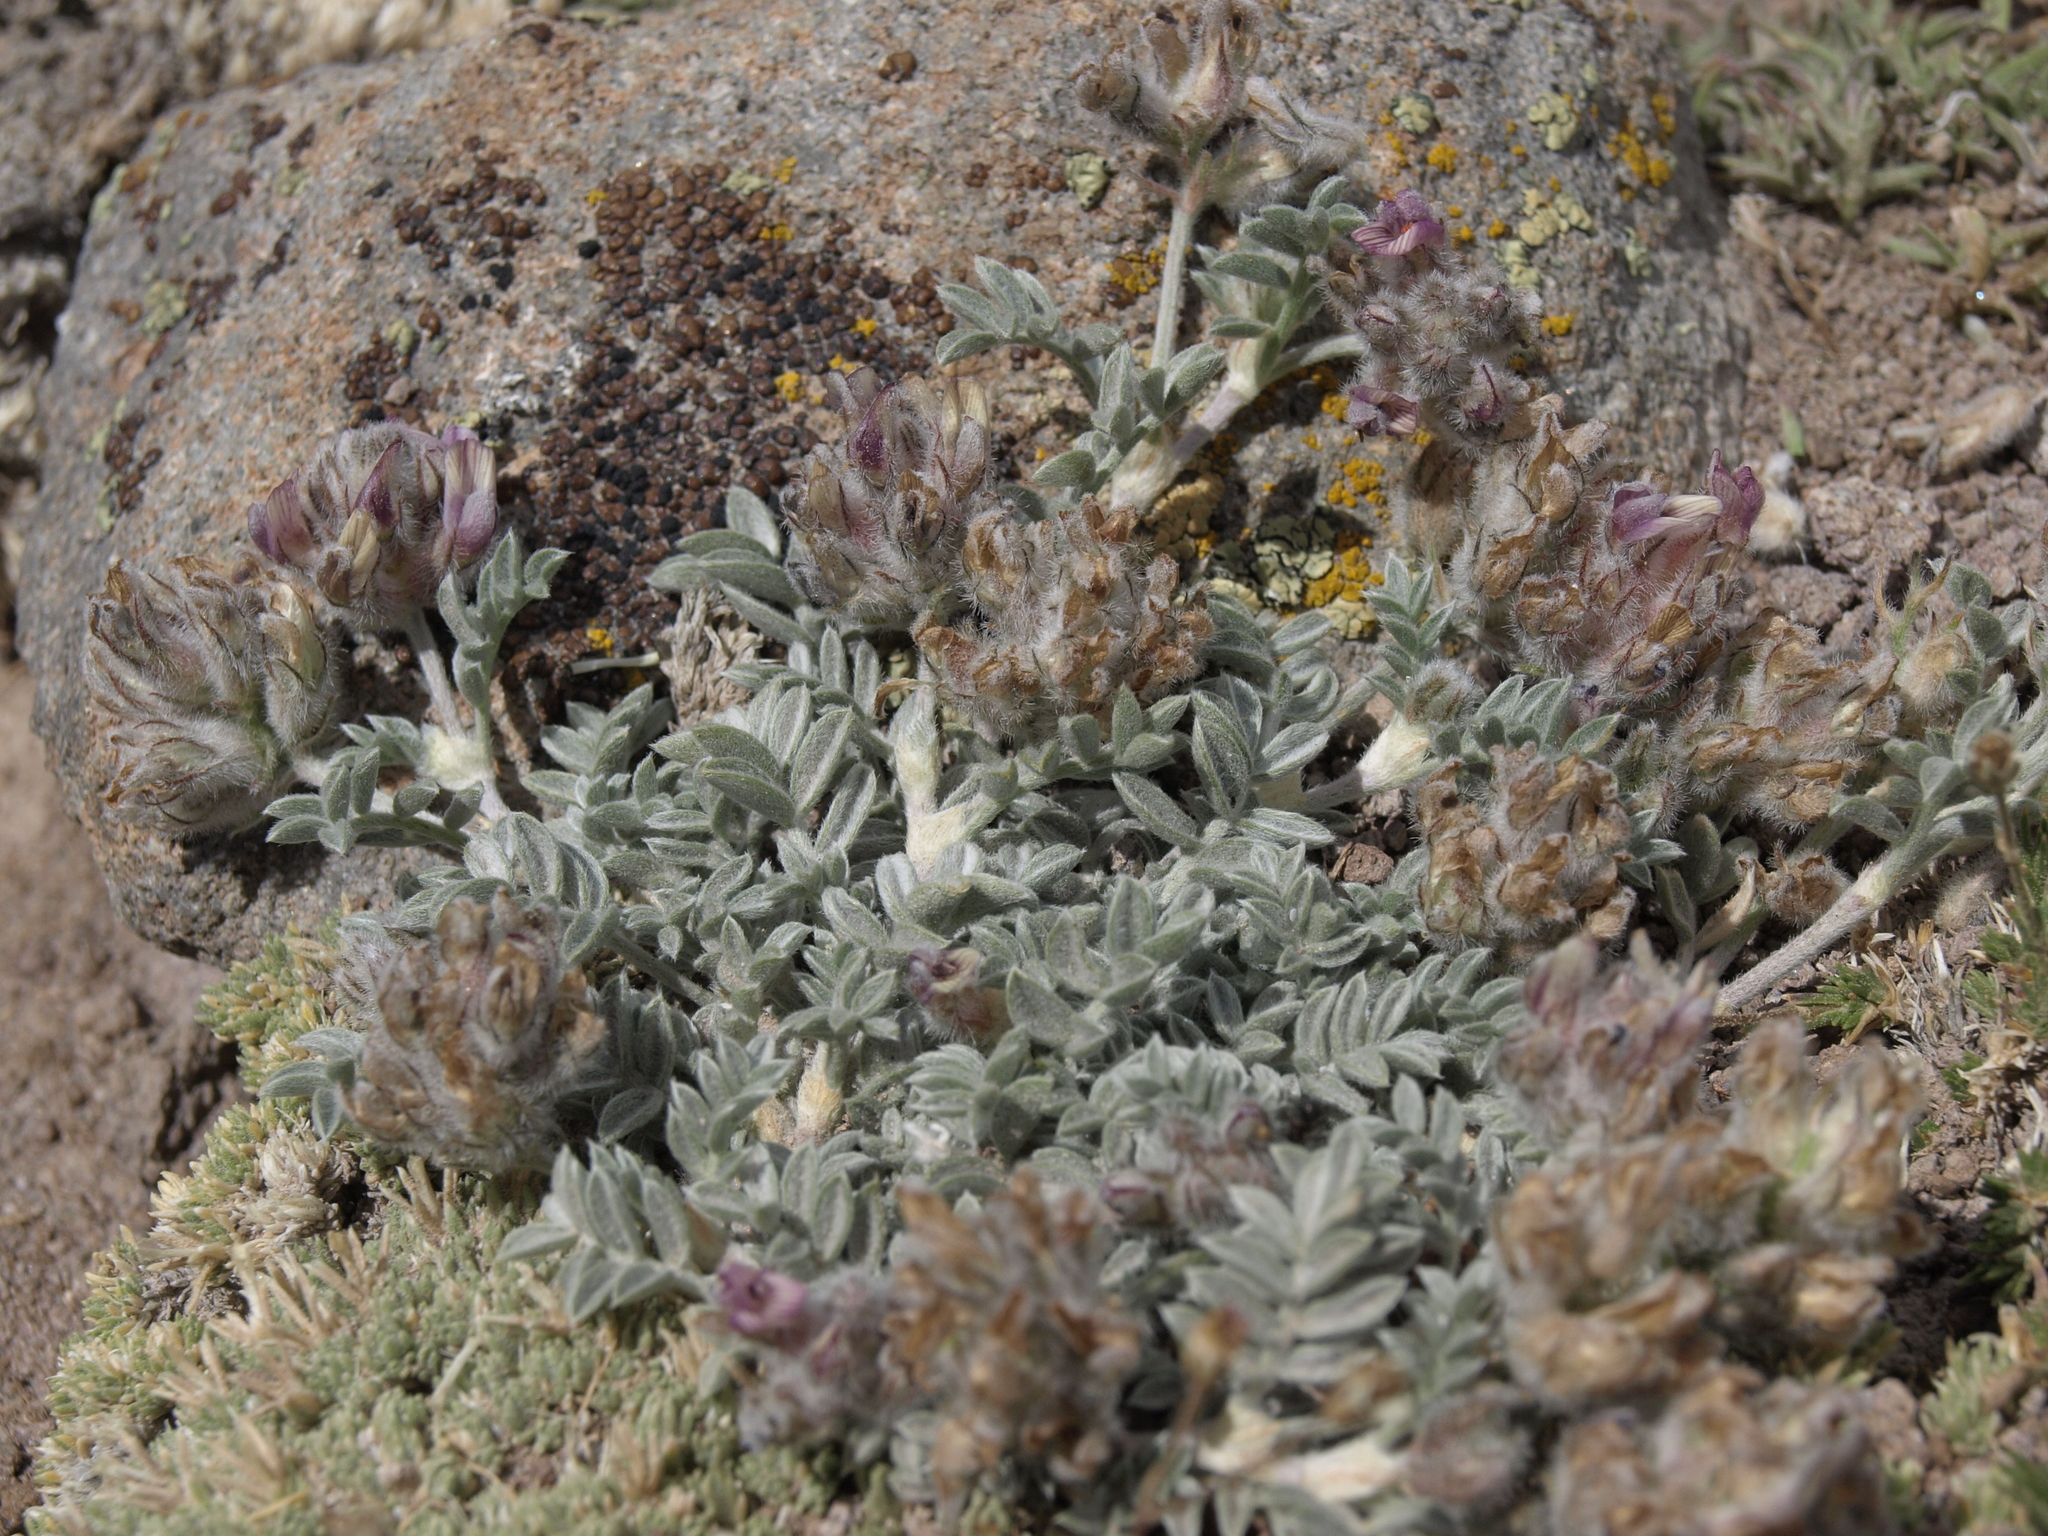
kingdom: Plantae
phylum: Tracheophyta
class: Magnoliopsida
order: Fabales
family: Fabaceae
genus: Astragalus
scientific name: Astragalus austiniae
